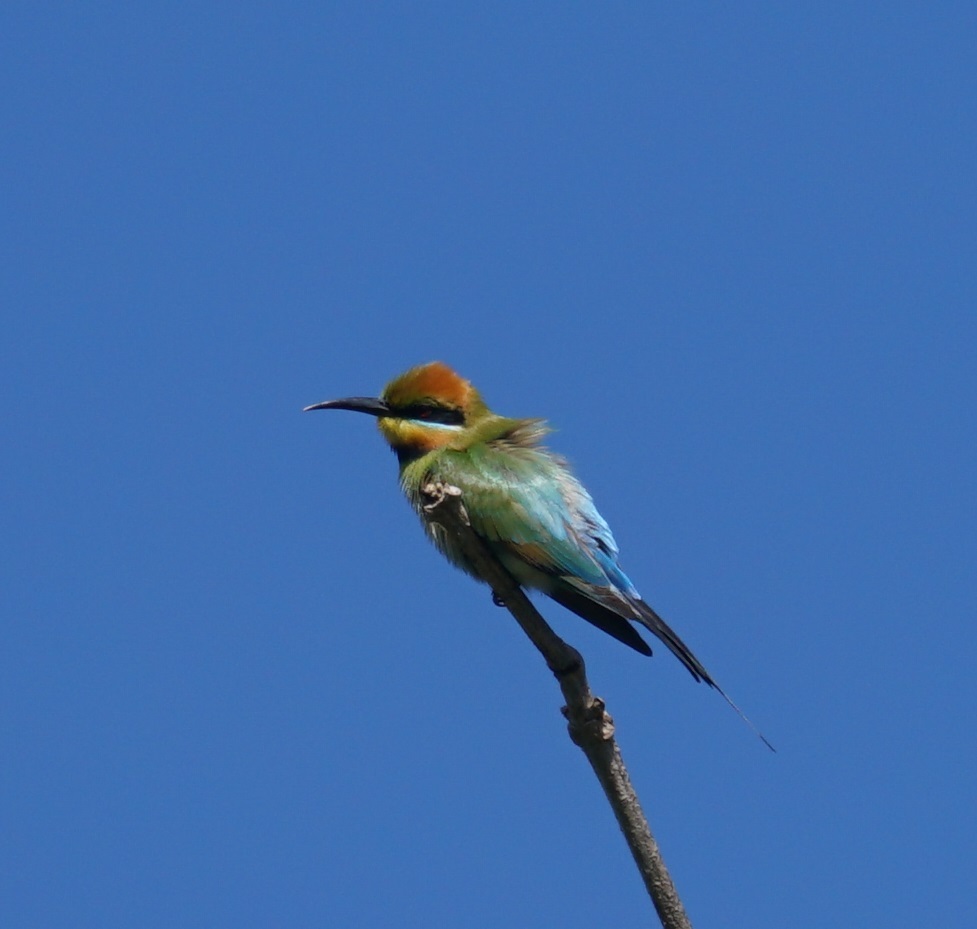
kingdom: Animalia
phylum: Chordata
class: Aves
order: Coraciiformes
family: Meropidae
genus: Merops
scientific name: Merops ornatus
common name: Rainbow bee-eater
